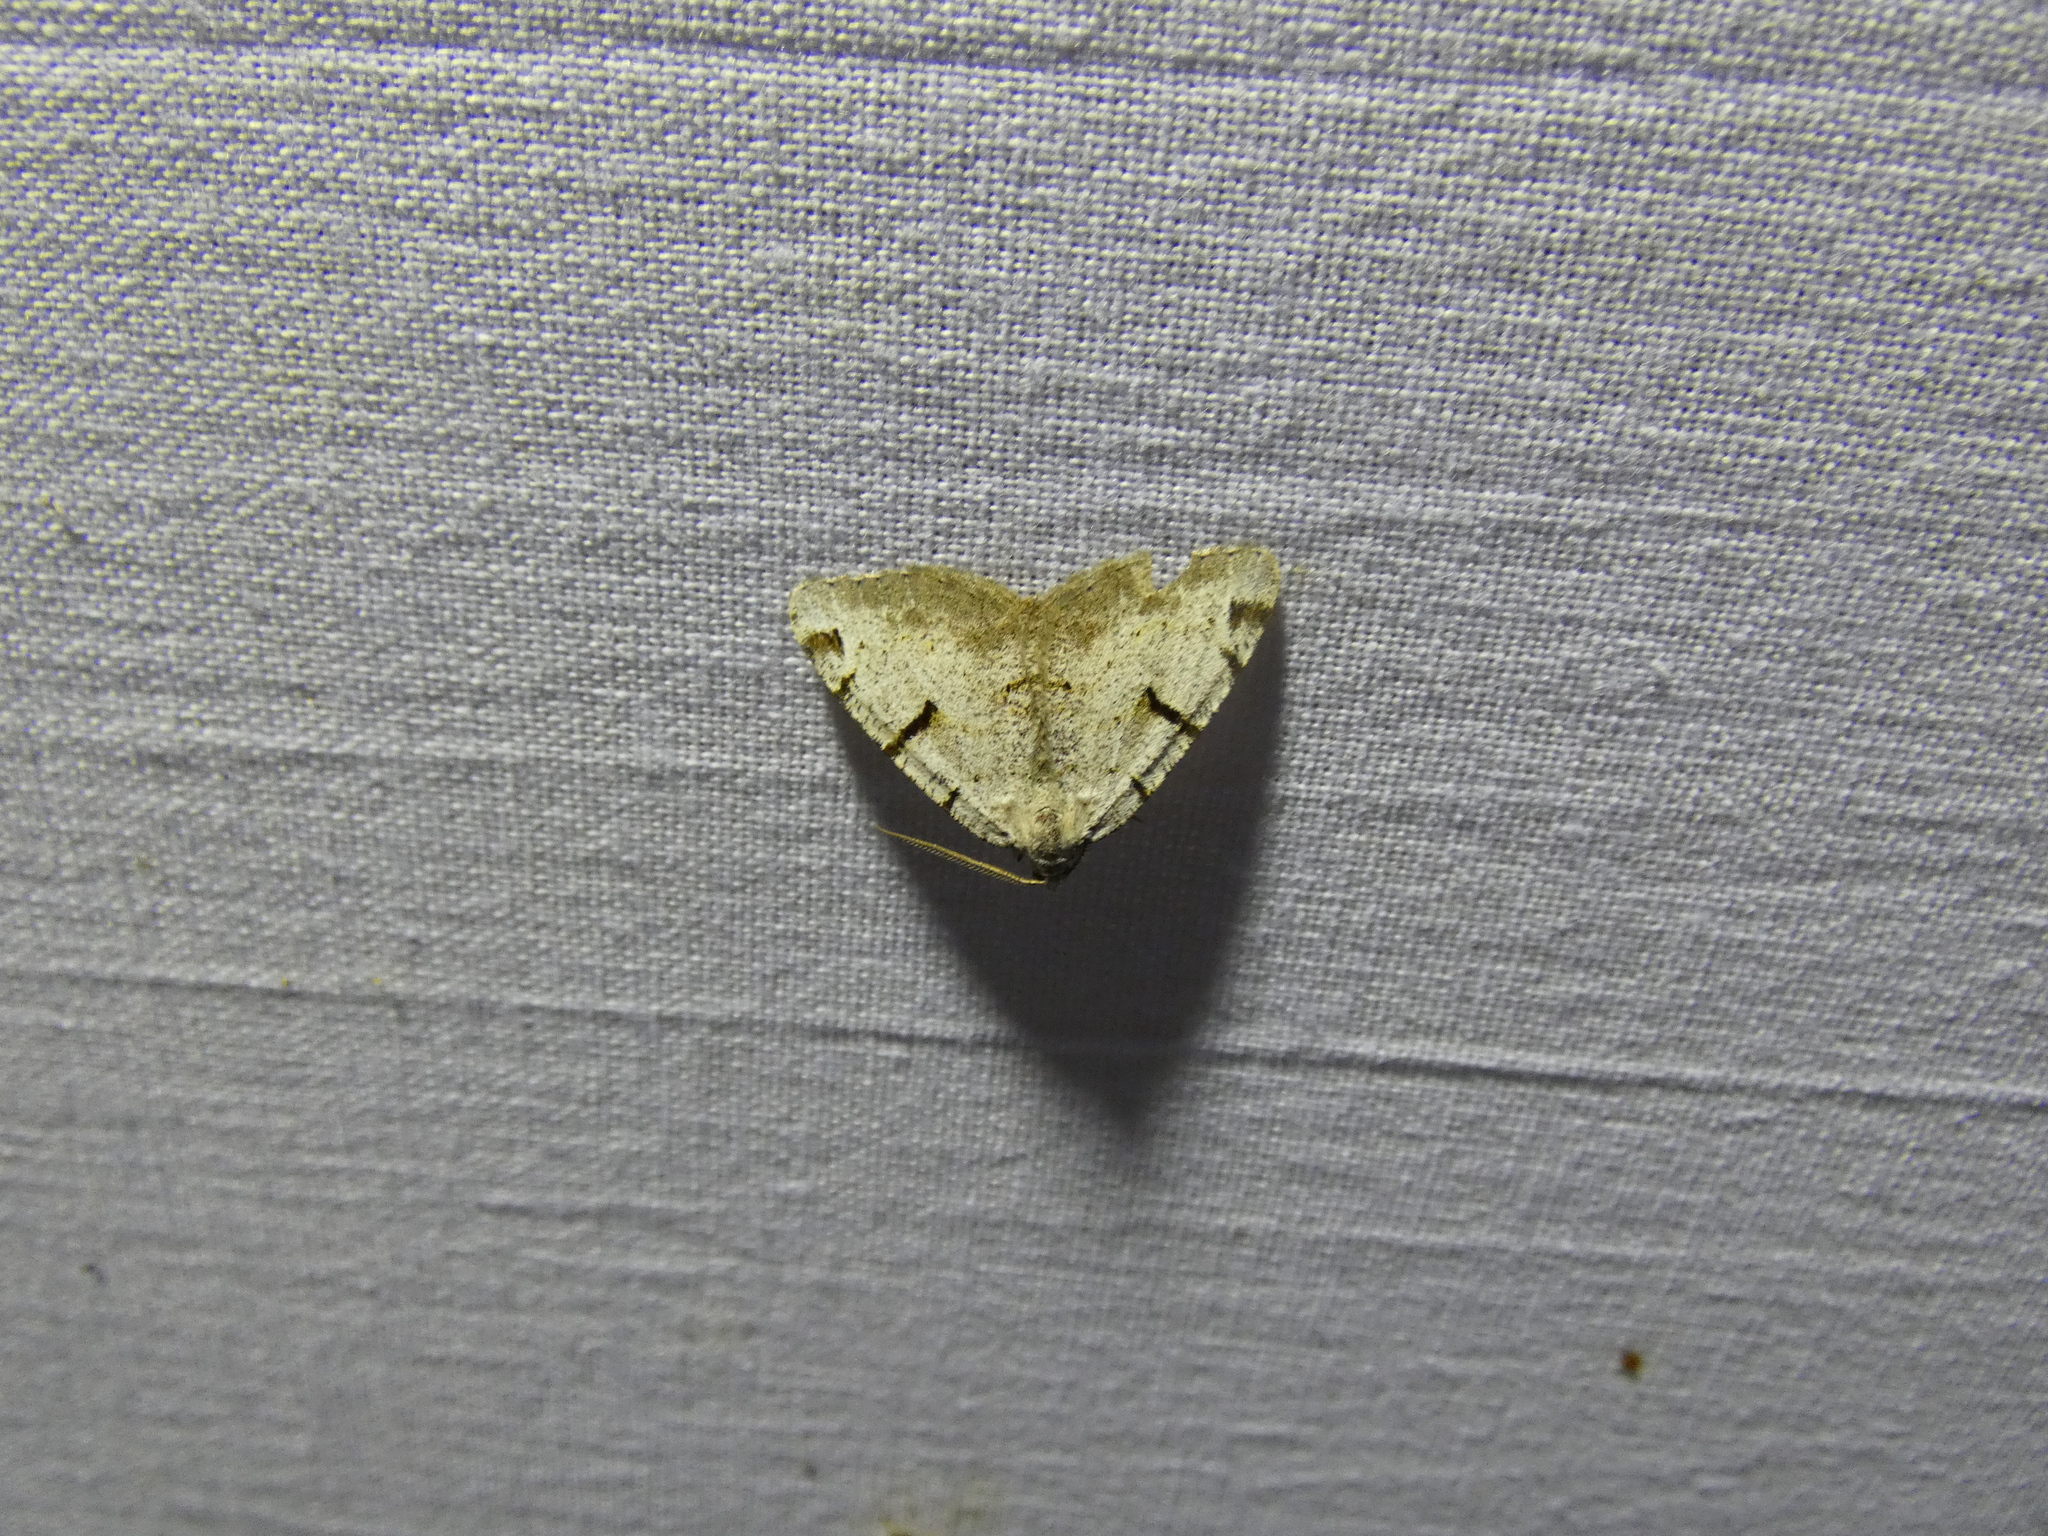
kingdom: Animalia
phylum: Arthropoda
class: Insecta
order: Lepidoptera
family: Geometridae
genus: Macaria
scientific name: Macaria wauaria
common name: V-moth
